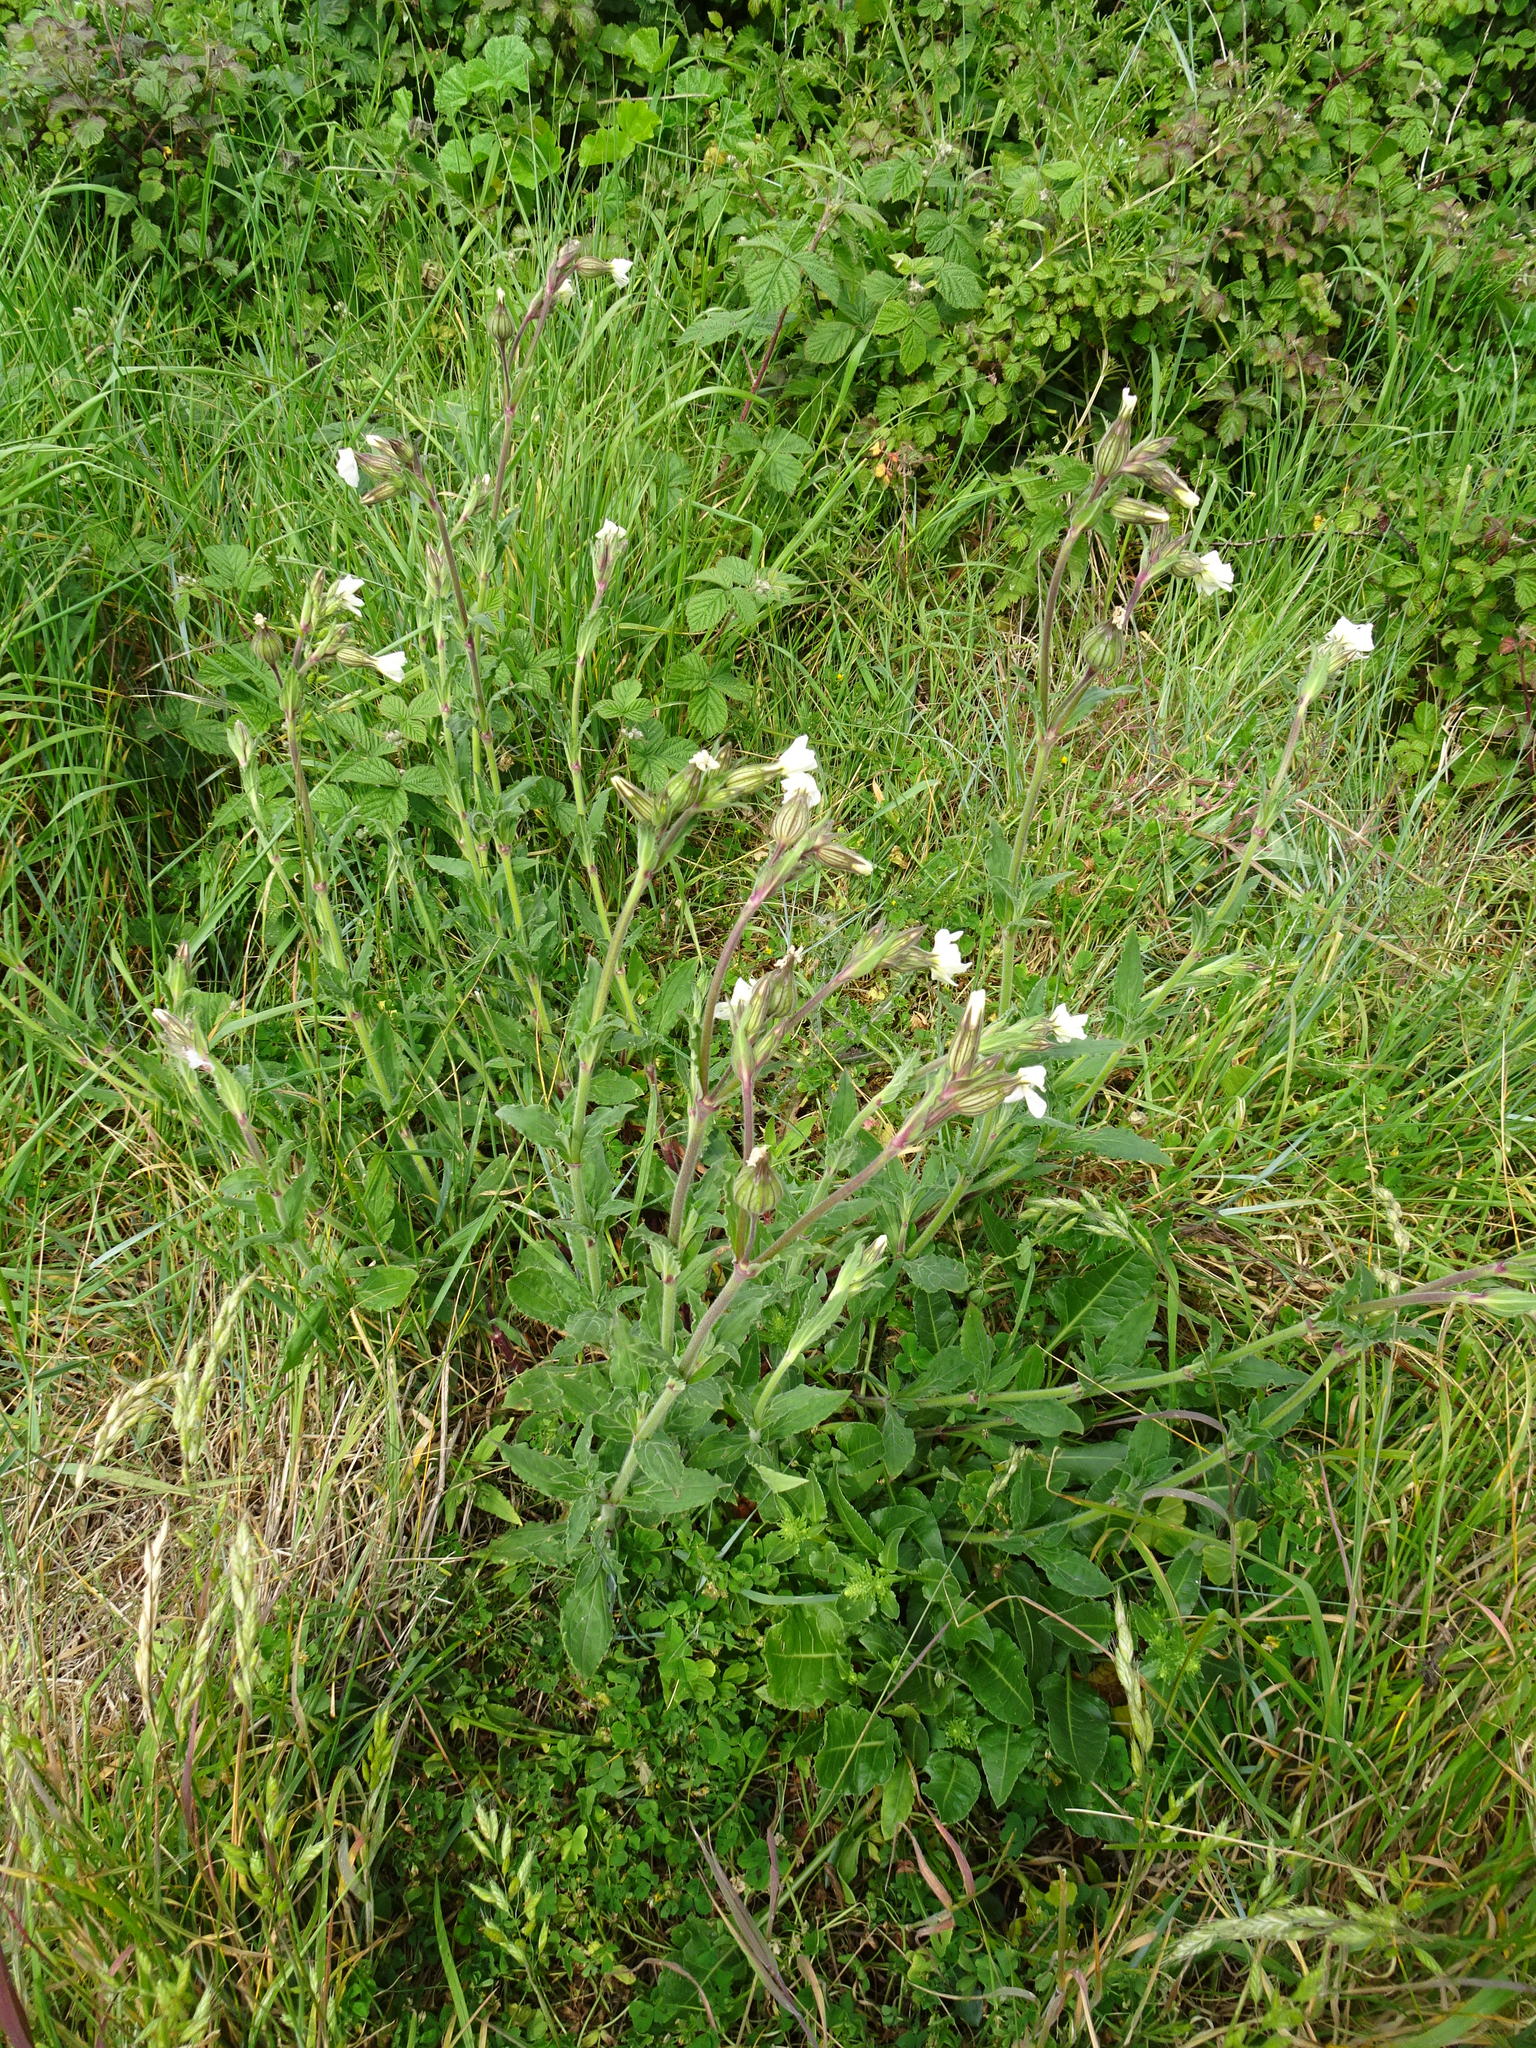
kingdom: Plantae
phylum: Tracheophyta
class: Magnoliopsida
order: Caryophyllales
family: Caryophyllaceae
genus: Silene
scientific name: Silene latifolia
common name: White campion
